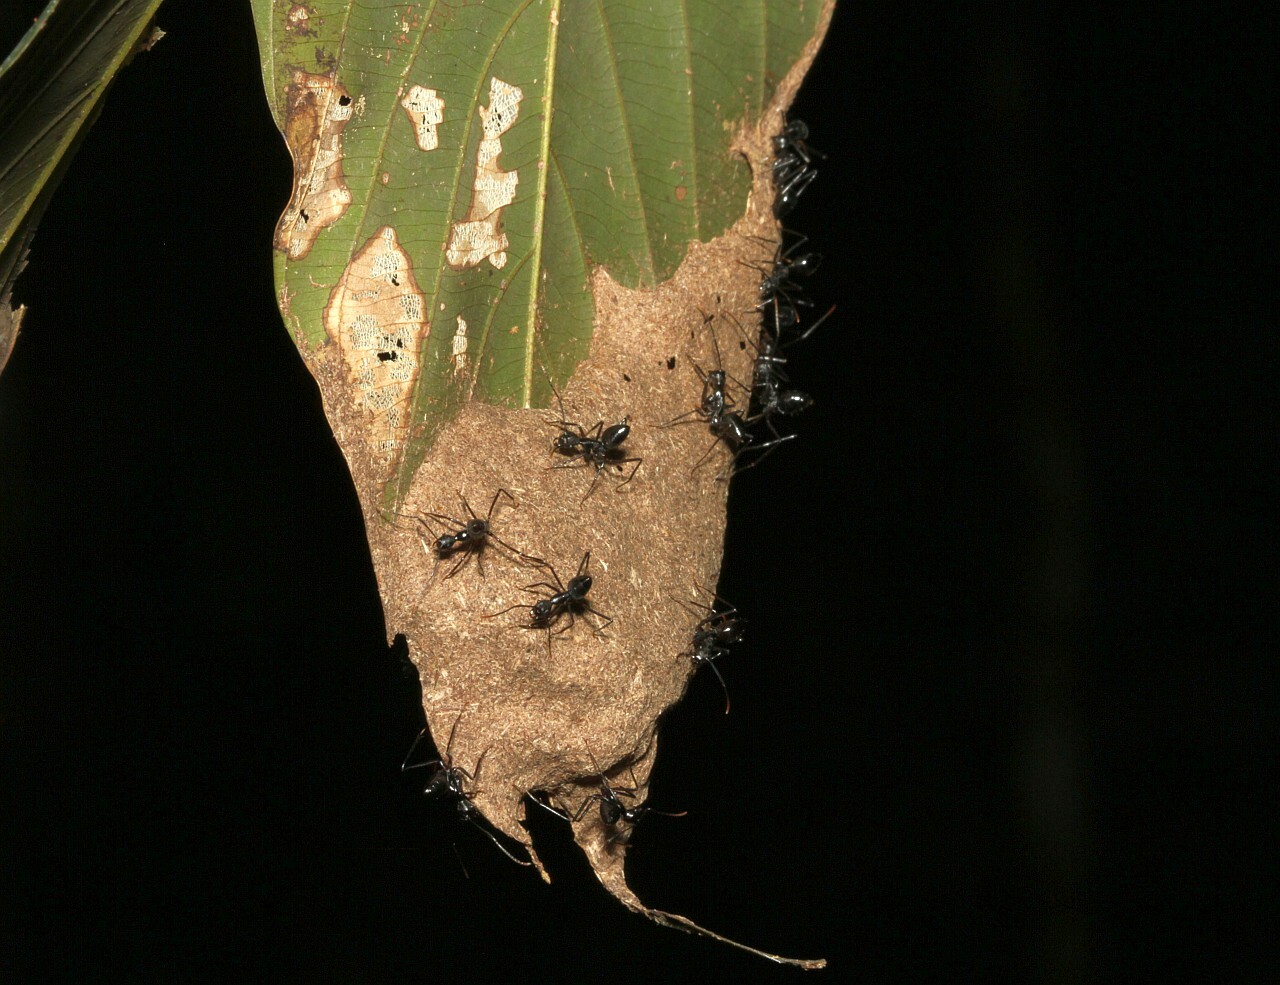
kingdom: Animalia
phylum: Arthropoda
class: Insecta
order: Hymenoptera
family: Formicidae
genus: Dendromyrmex
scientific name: Dendromyrmex apicalis
